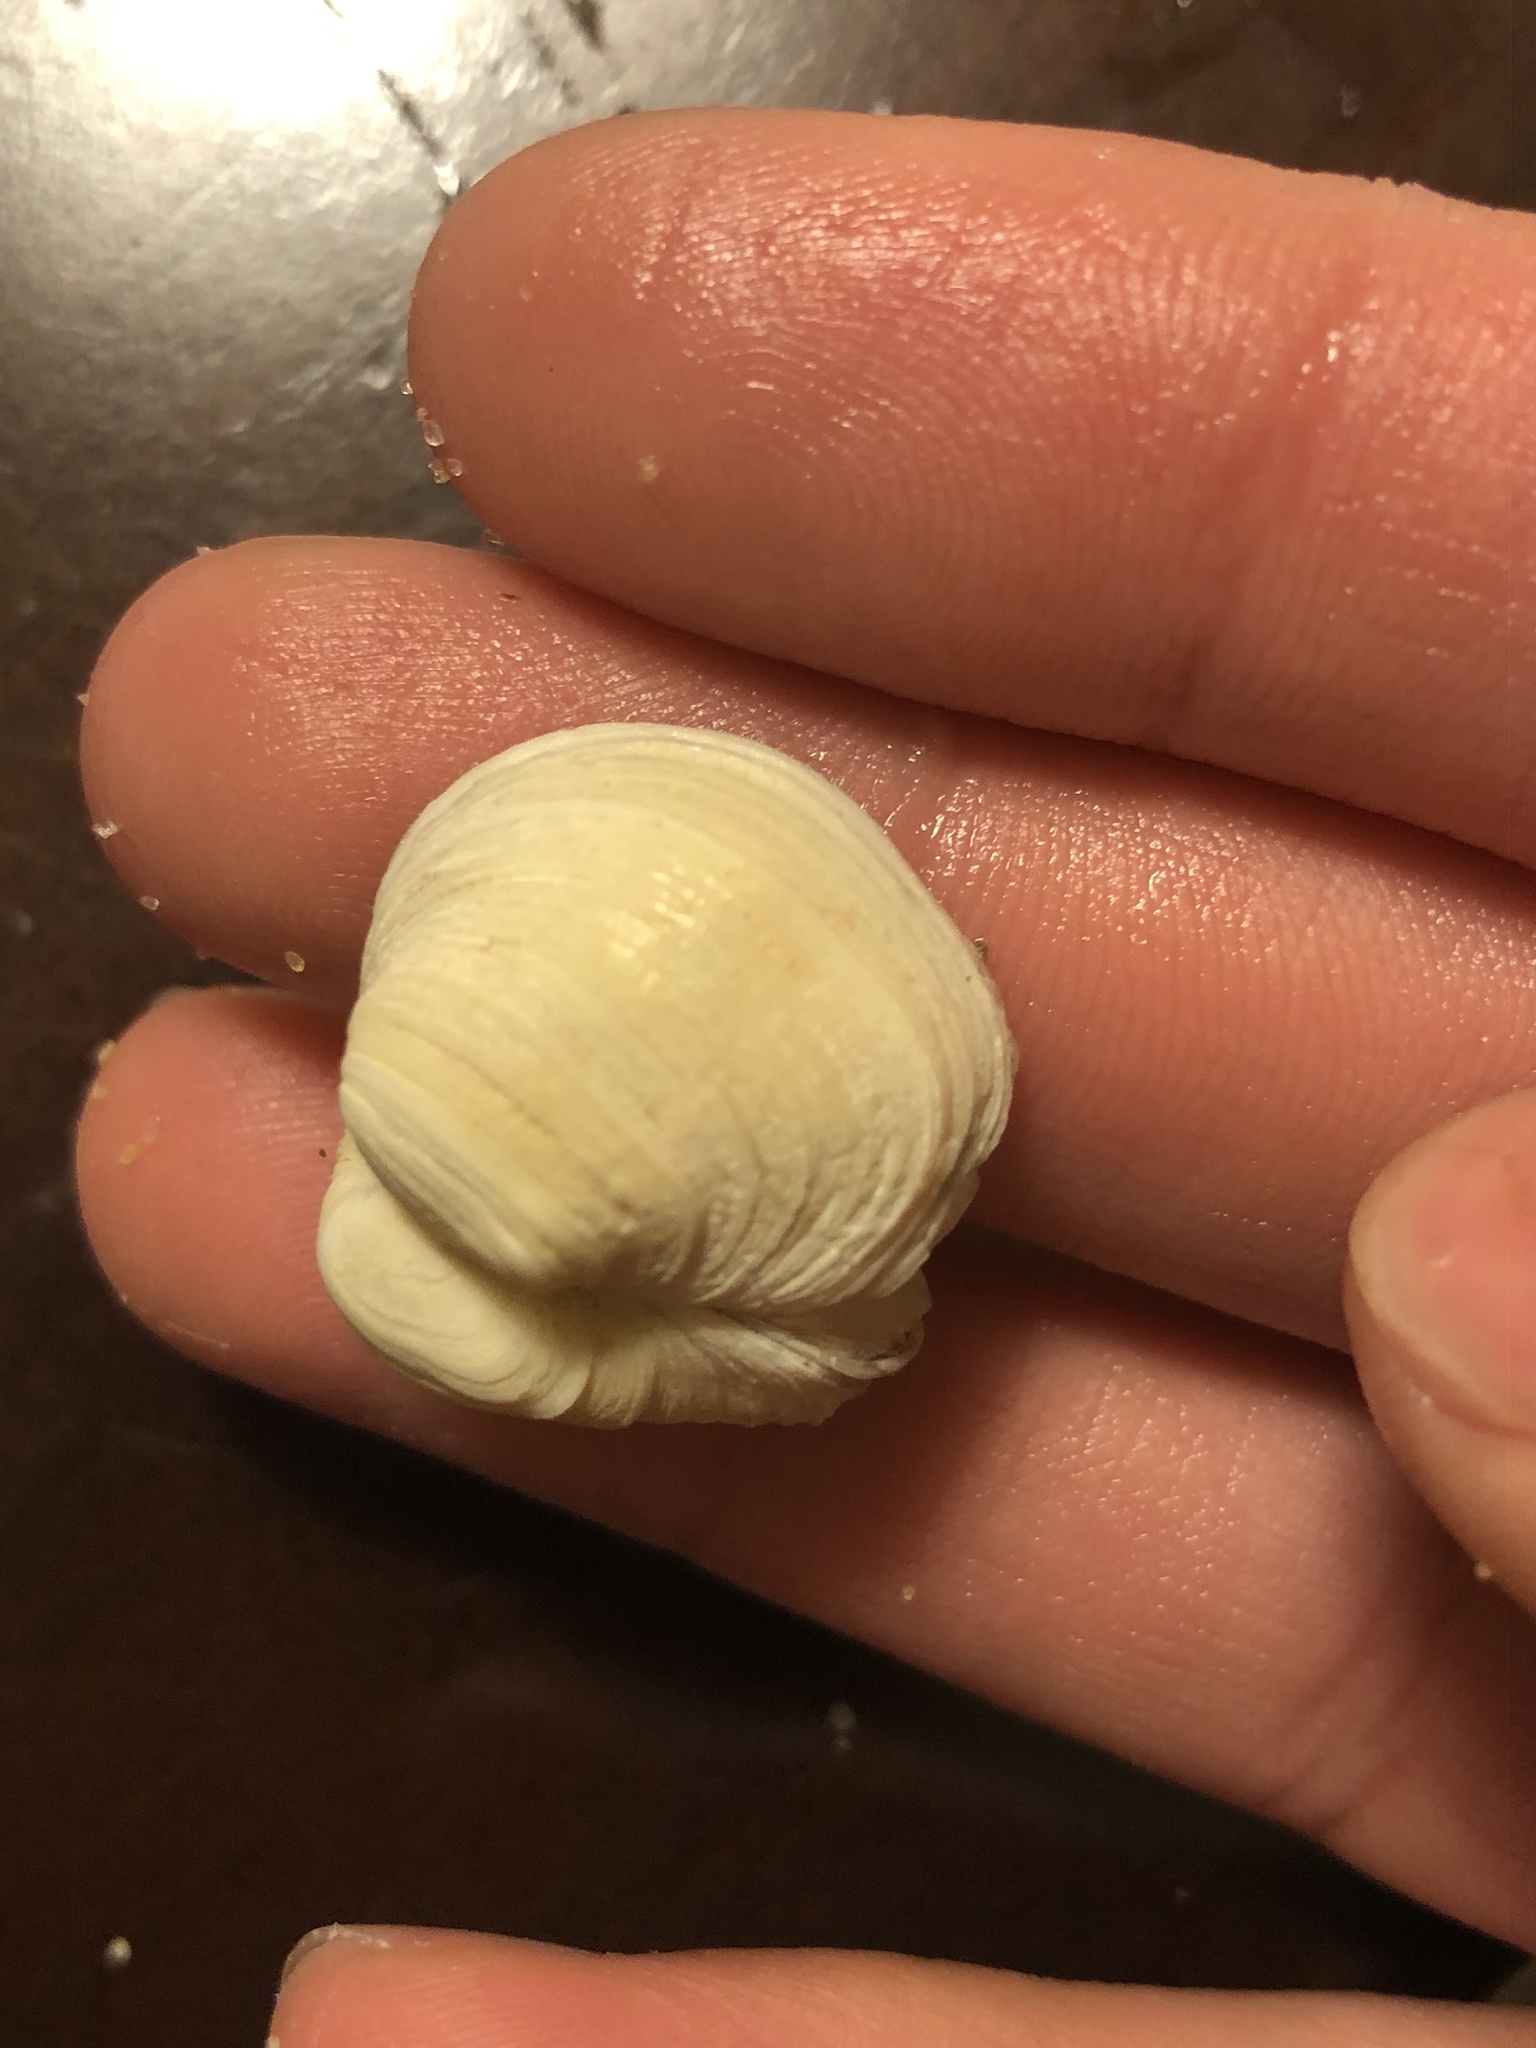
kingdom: Animalia
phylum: Mollusca
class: Bivalvia
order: Venerida
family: Veneridae
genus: Petricola
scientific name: Petricola carditoides
